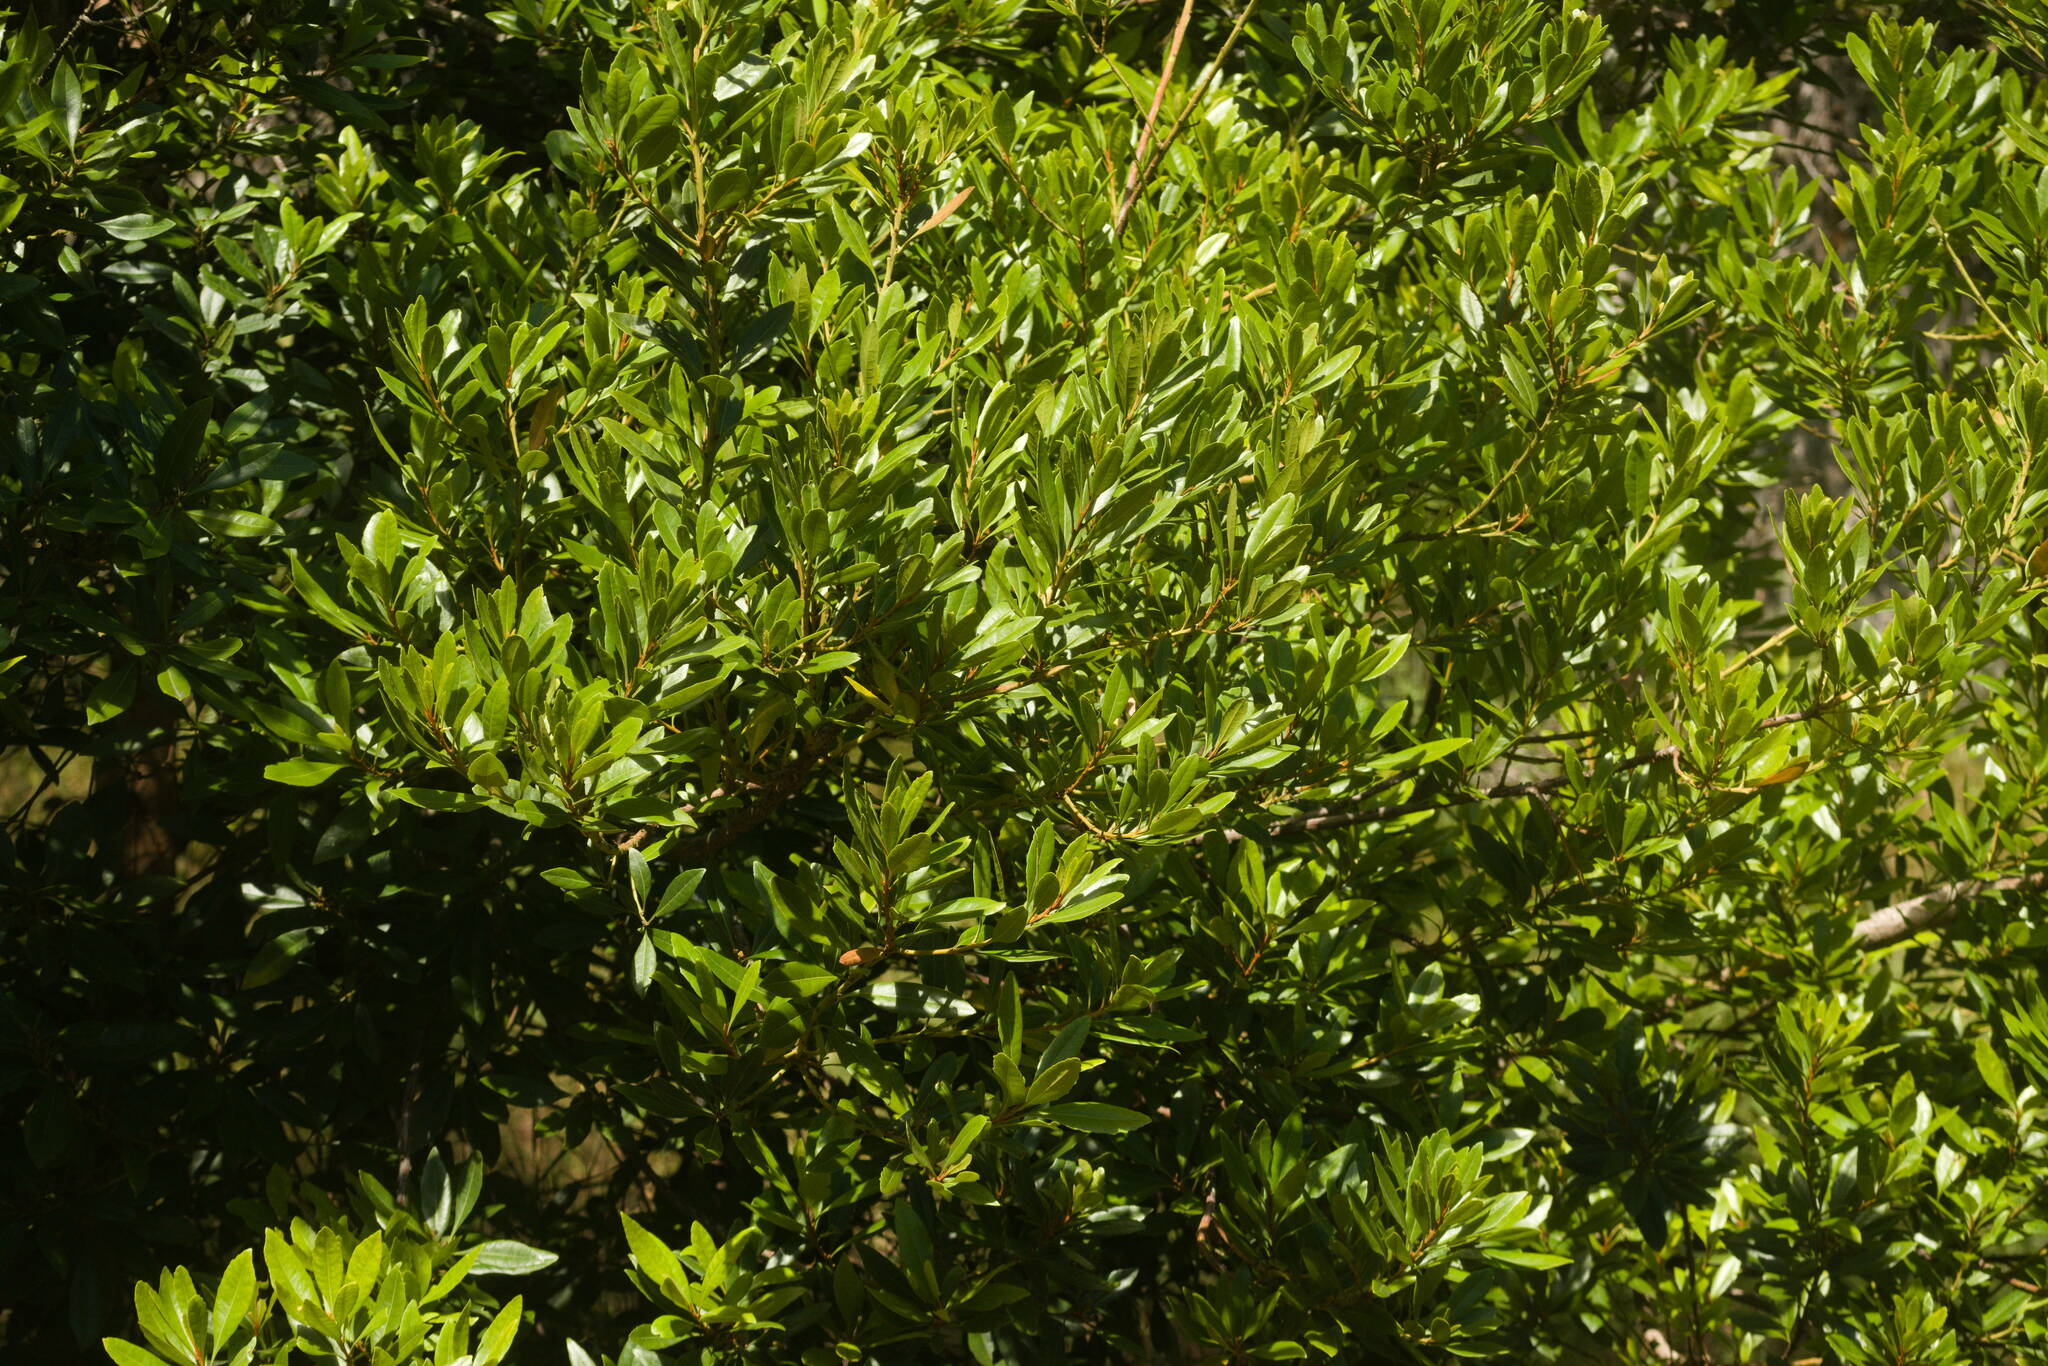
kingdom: Plantae
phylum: Tracheophyta
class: Magnoliopsida
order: Fagales
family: Myricaceae
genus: Morella
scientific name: Morella faya
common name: Firetree
